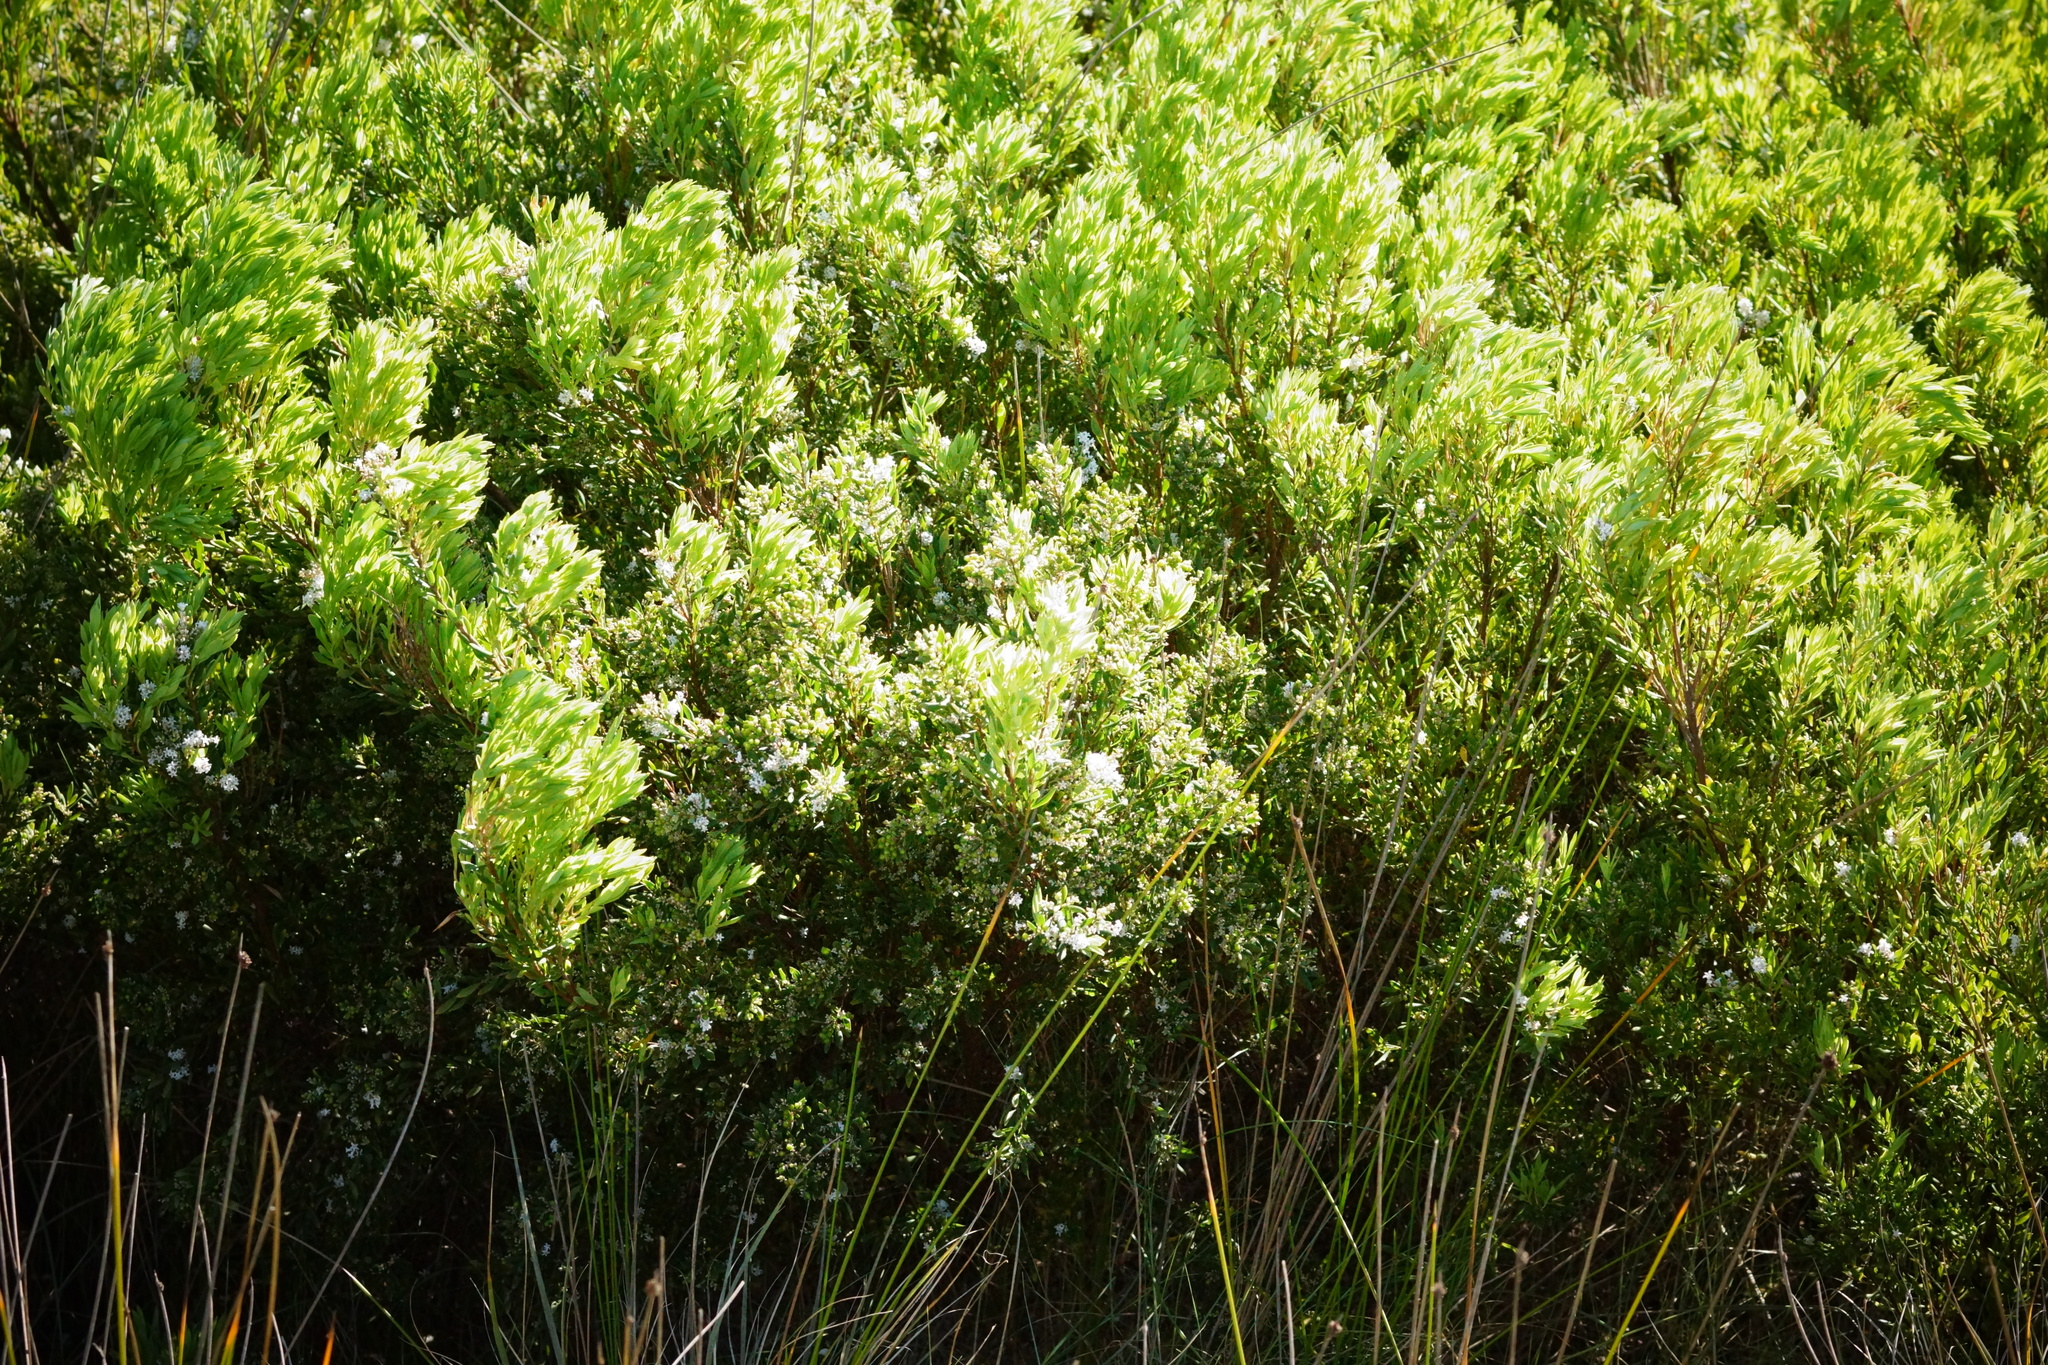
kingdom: Plantae
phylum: Tracheophyta
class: Magnoliopsida
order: Ericales
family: Ericaceae
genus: Leptecophylla
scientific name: Leptecophylla parvifolia
